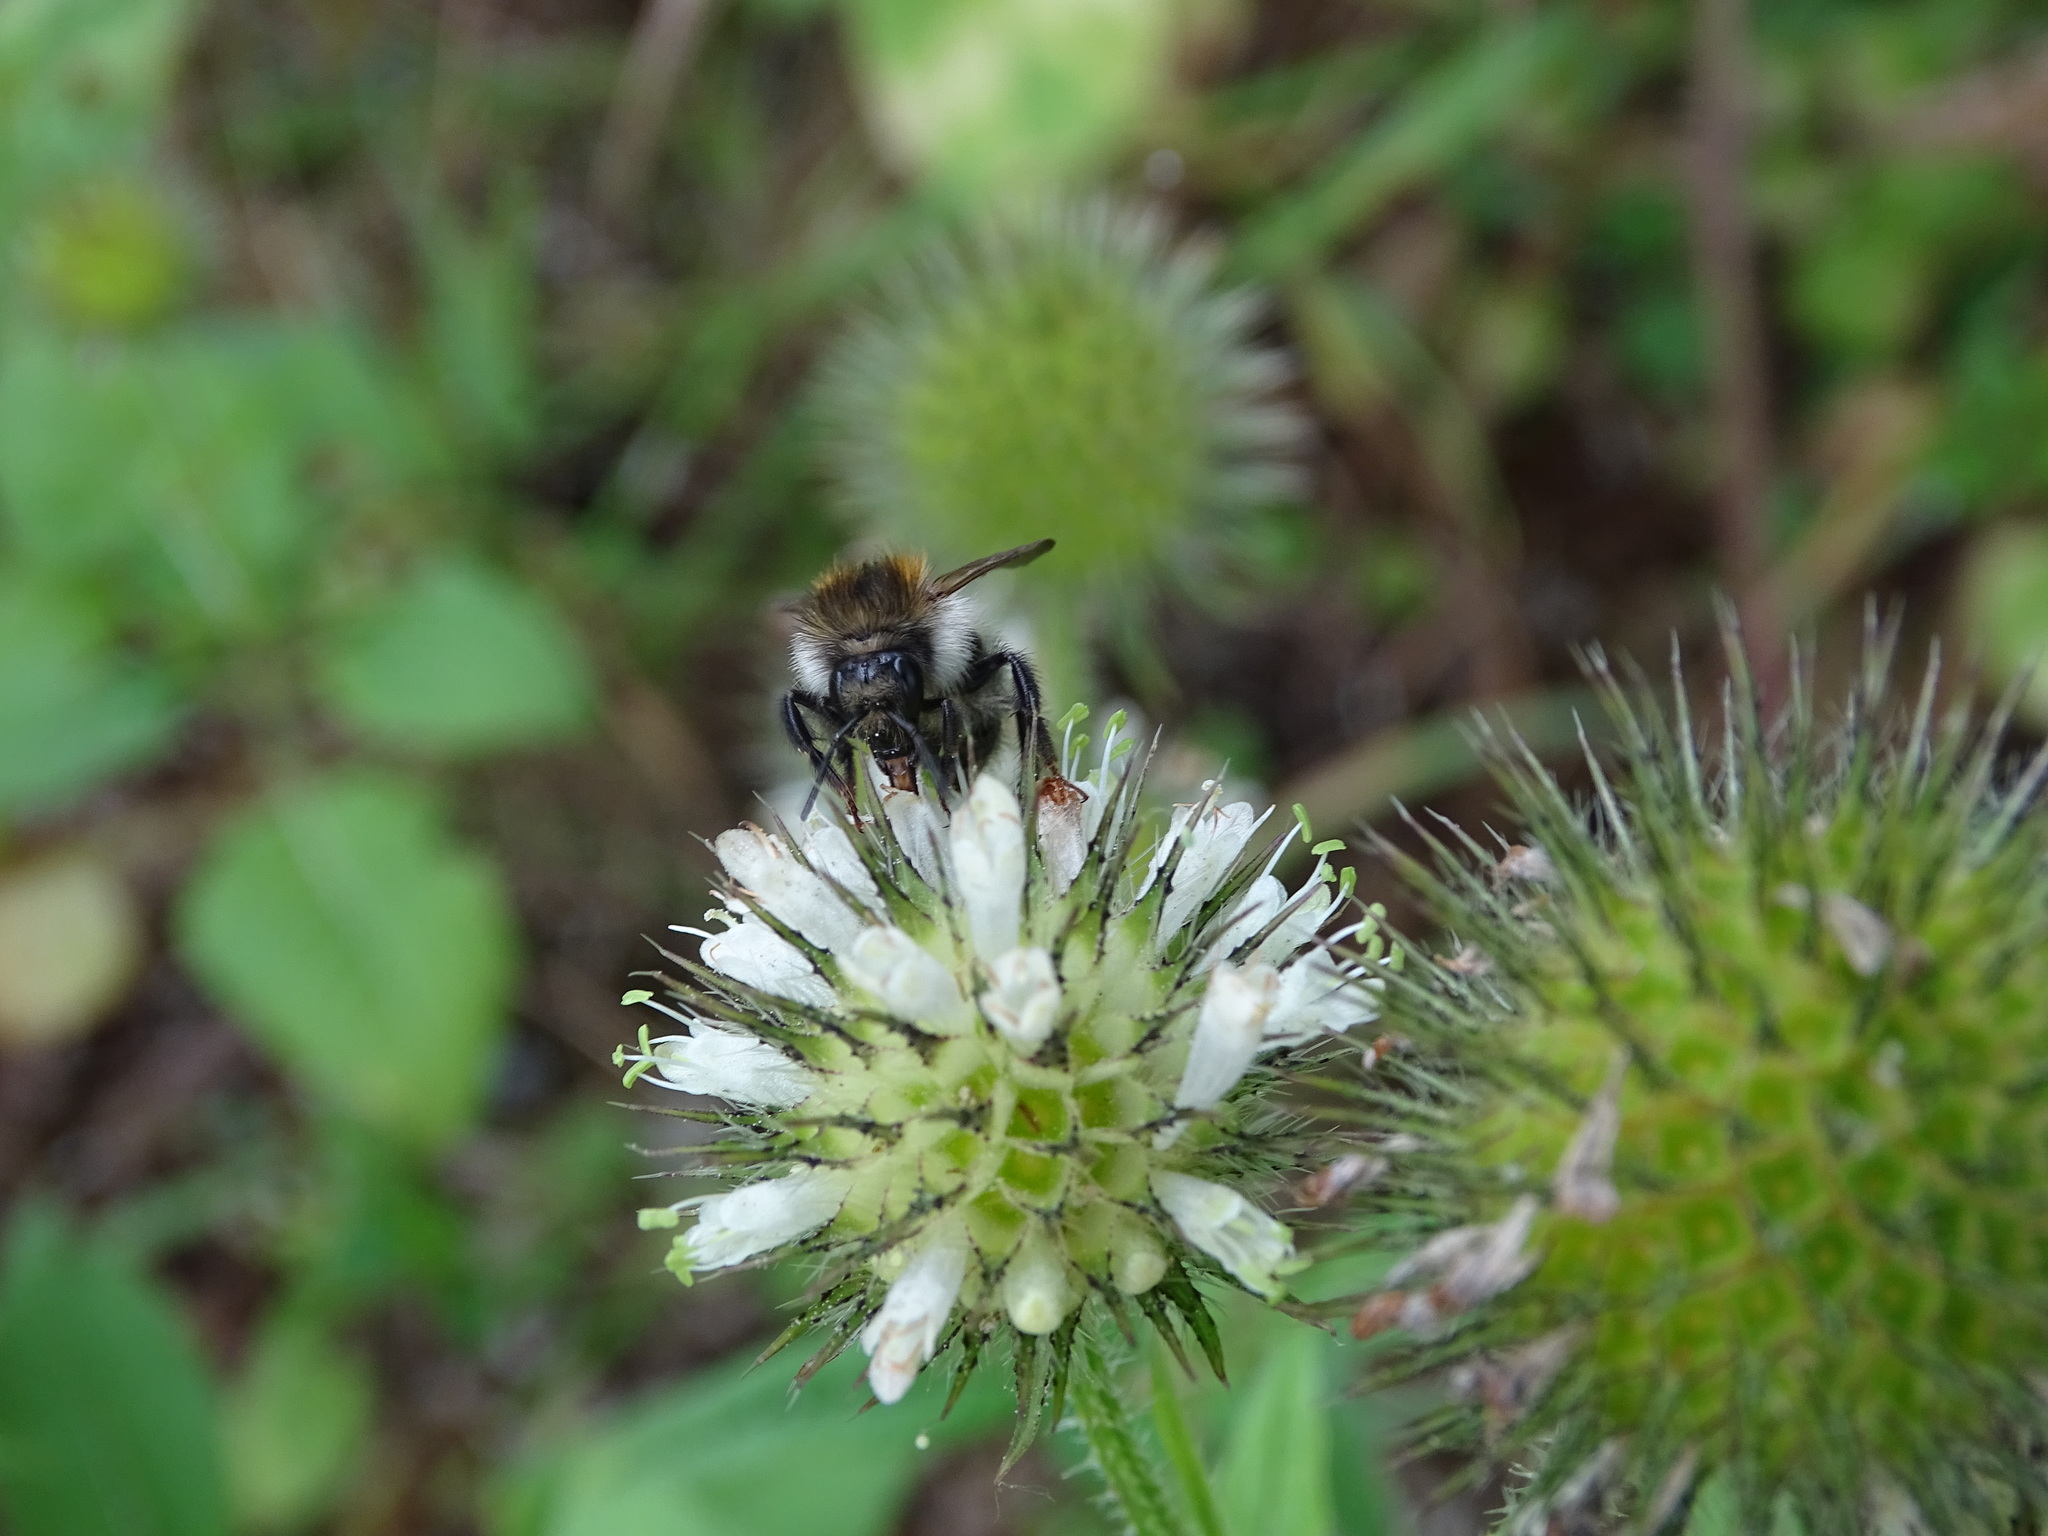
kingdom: Animalia
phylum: Arthropoda
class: Insecta
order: Hymenoptera
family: Apidae
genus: Bombus
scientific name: Bombus pascuorum
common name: Common carder bee
